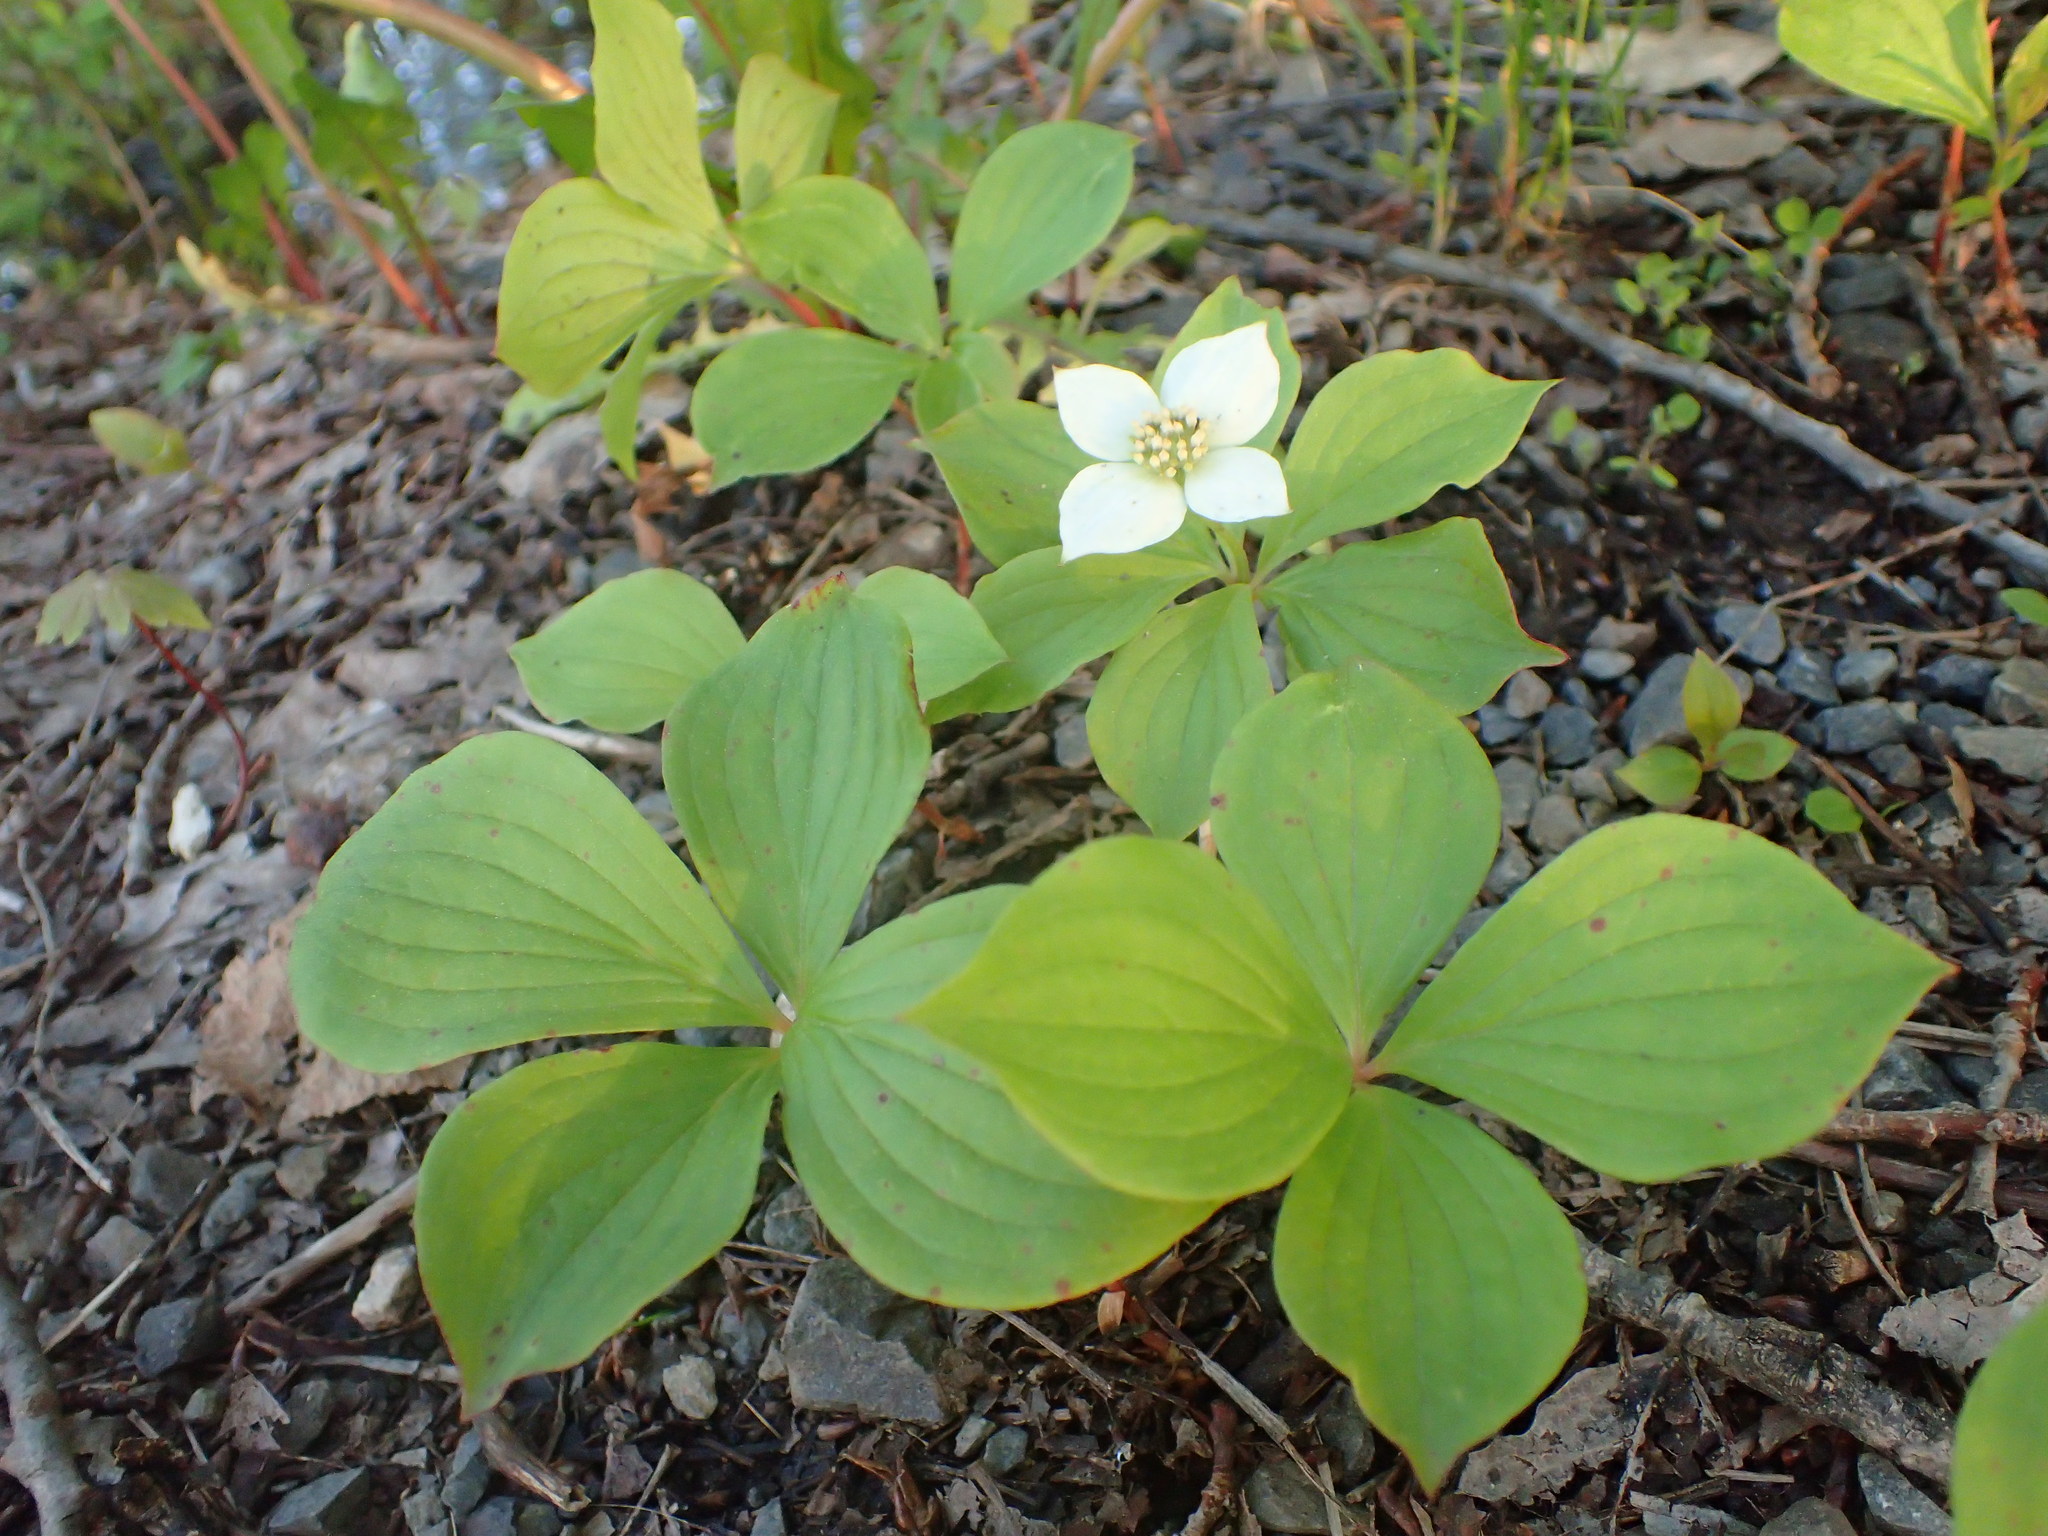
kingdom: Plantae
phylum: Tracheophyta
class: Magnoliopsida
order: Cornales
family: Cornaceae
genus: Cornus
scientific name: Cornus canadensis
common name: Creeping dogwood
